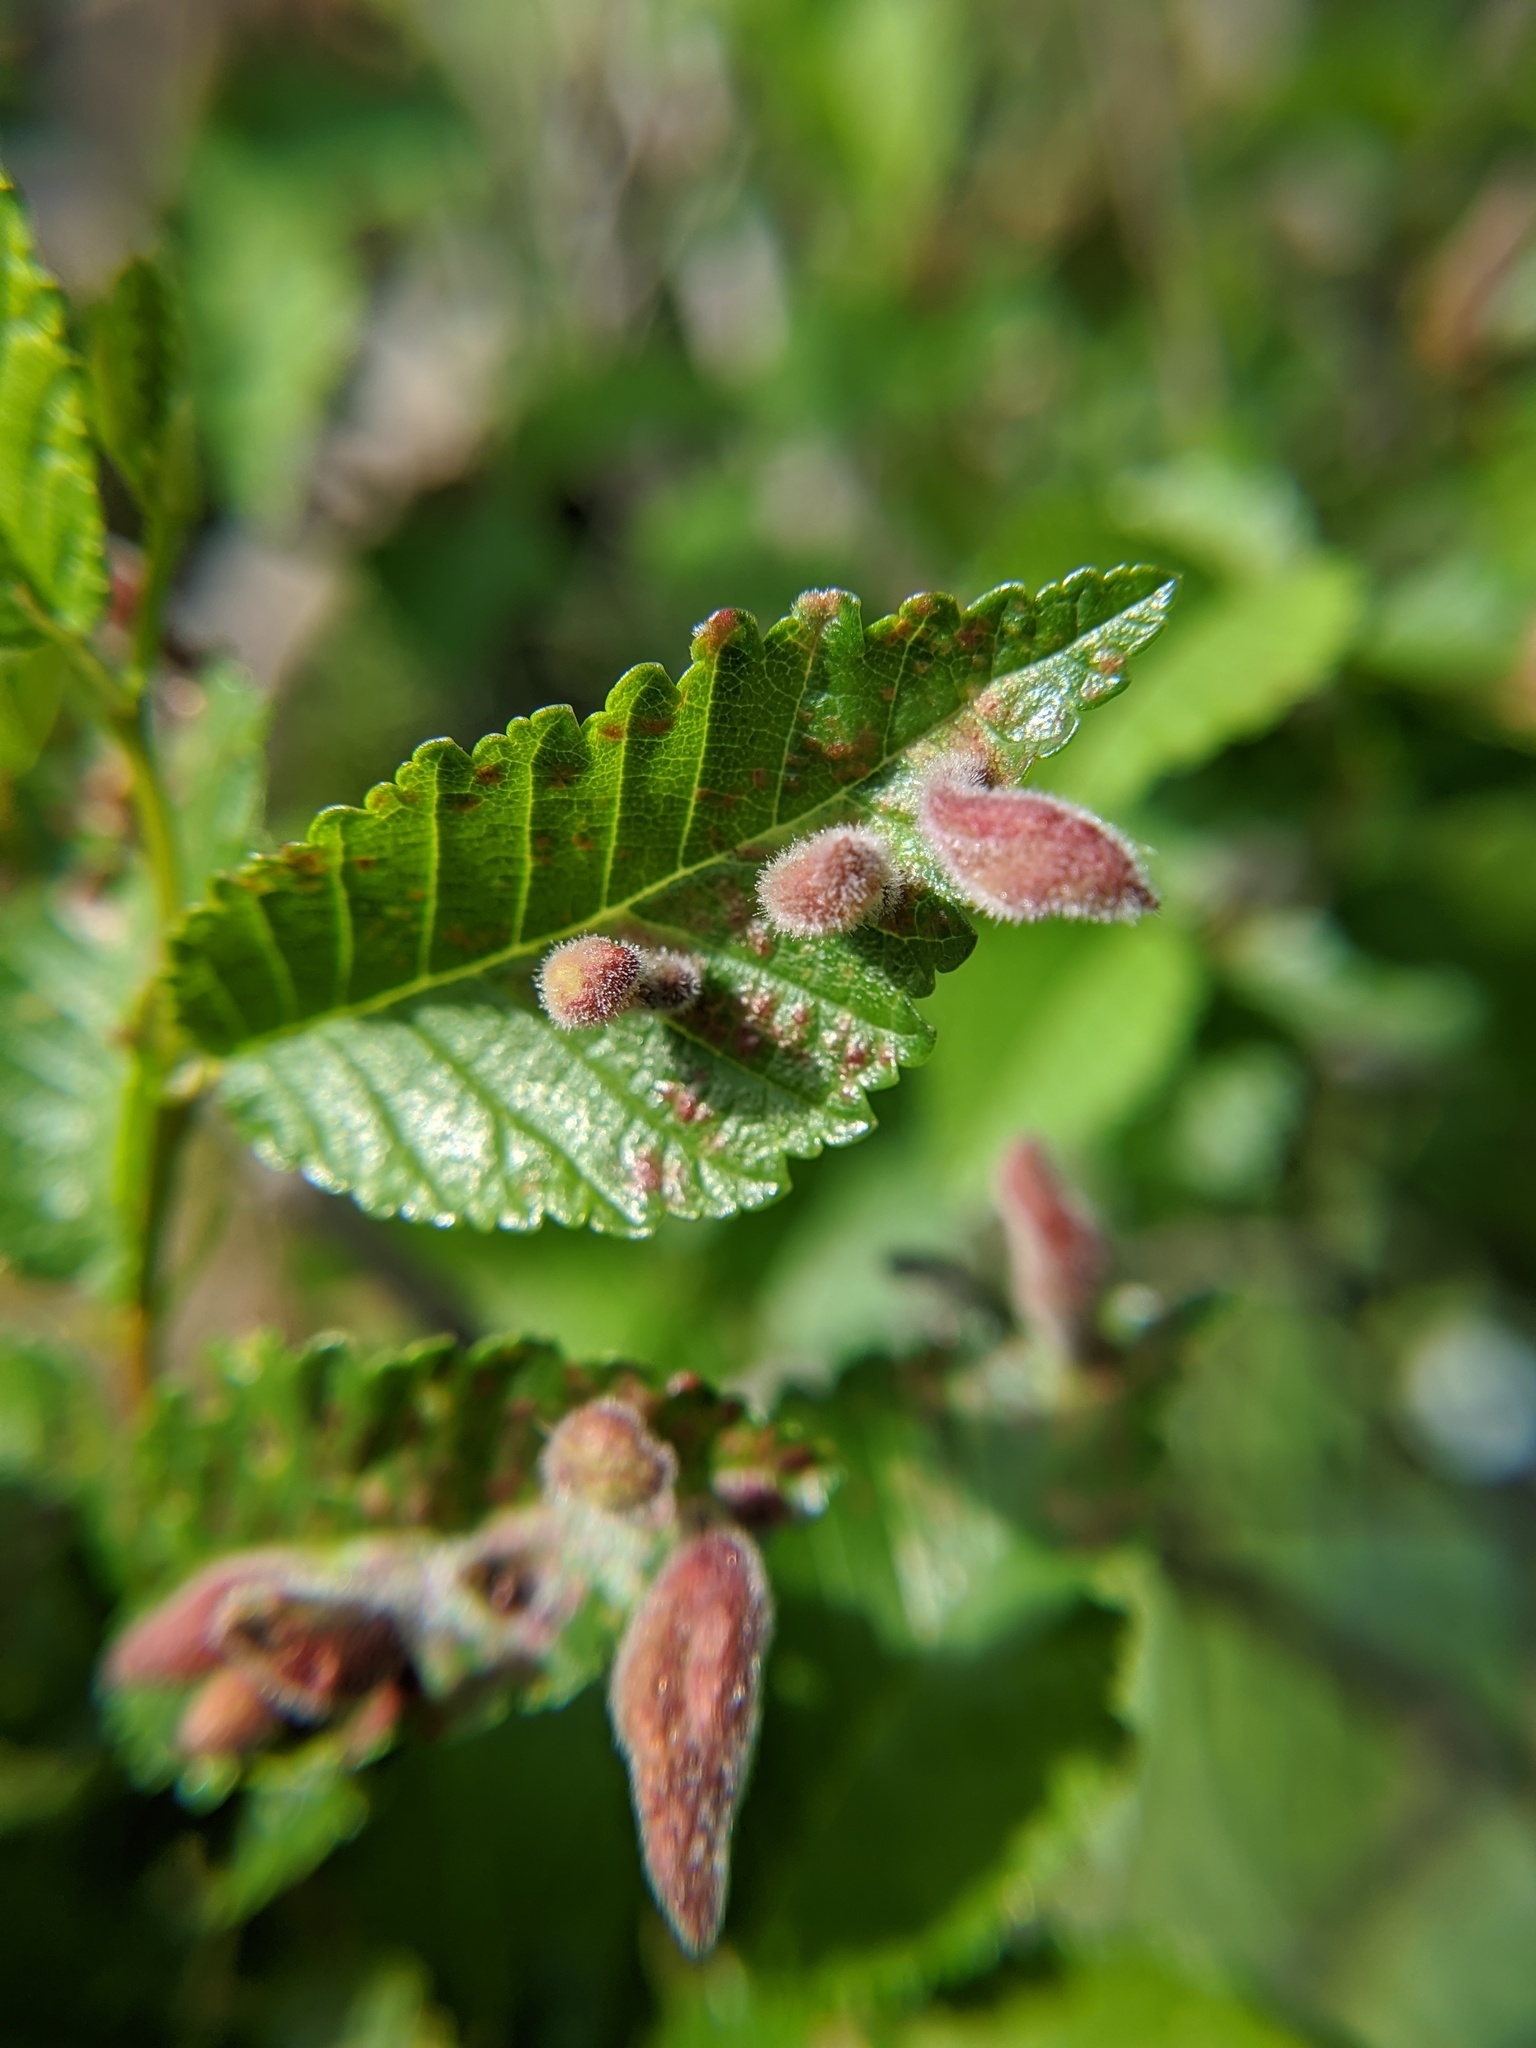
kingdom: Animalia
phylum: Arthropoda
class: Insecta
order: Hemiptera
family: Aphididae
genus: Tetraneura
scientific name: Tetraneura nigriabdominalis
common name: Aphid
